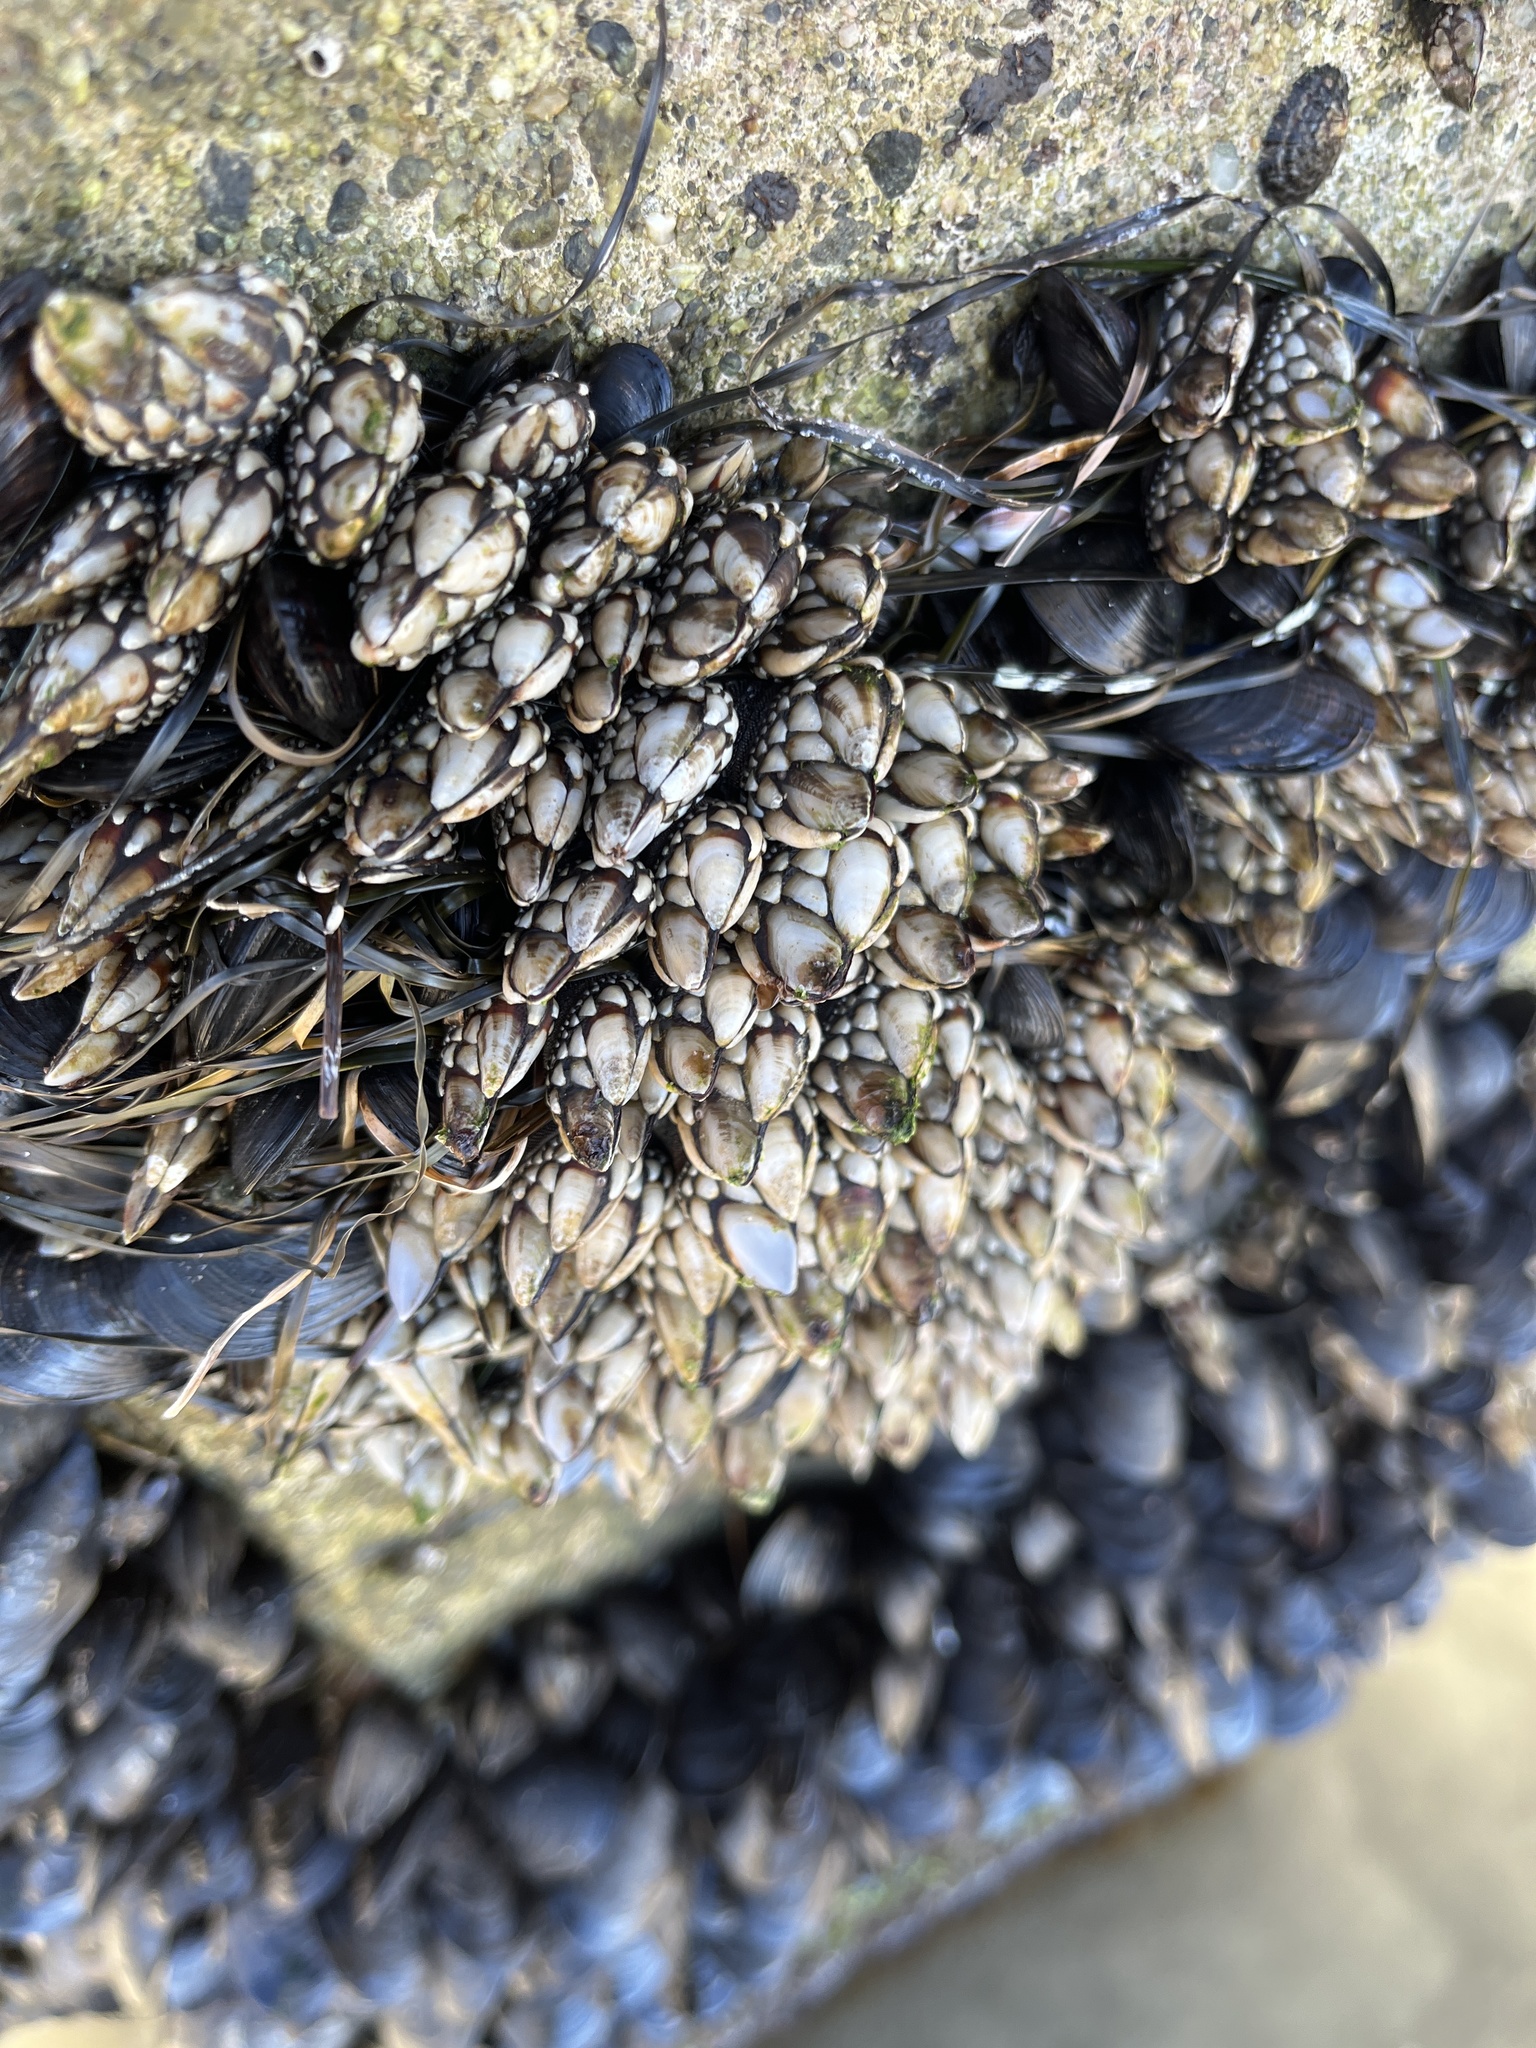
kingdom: Animalia
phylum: Arthropoda
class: Maxillopoda
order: Pedunculata
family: Pollicipedidae
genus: Pollicipes
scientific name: Pollicipes polymerus
